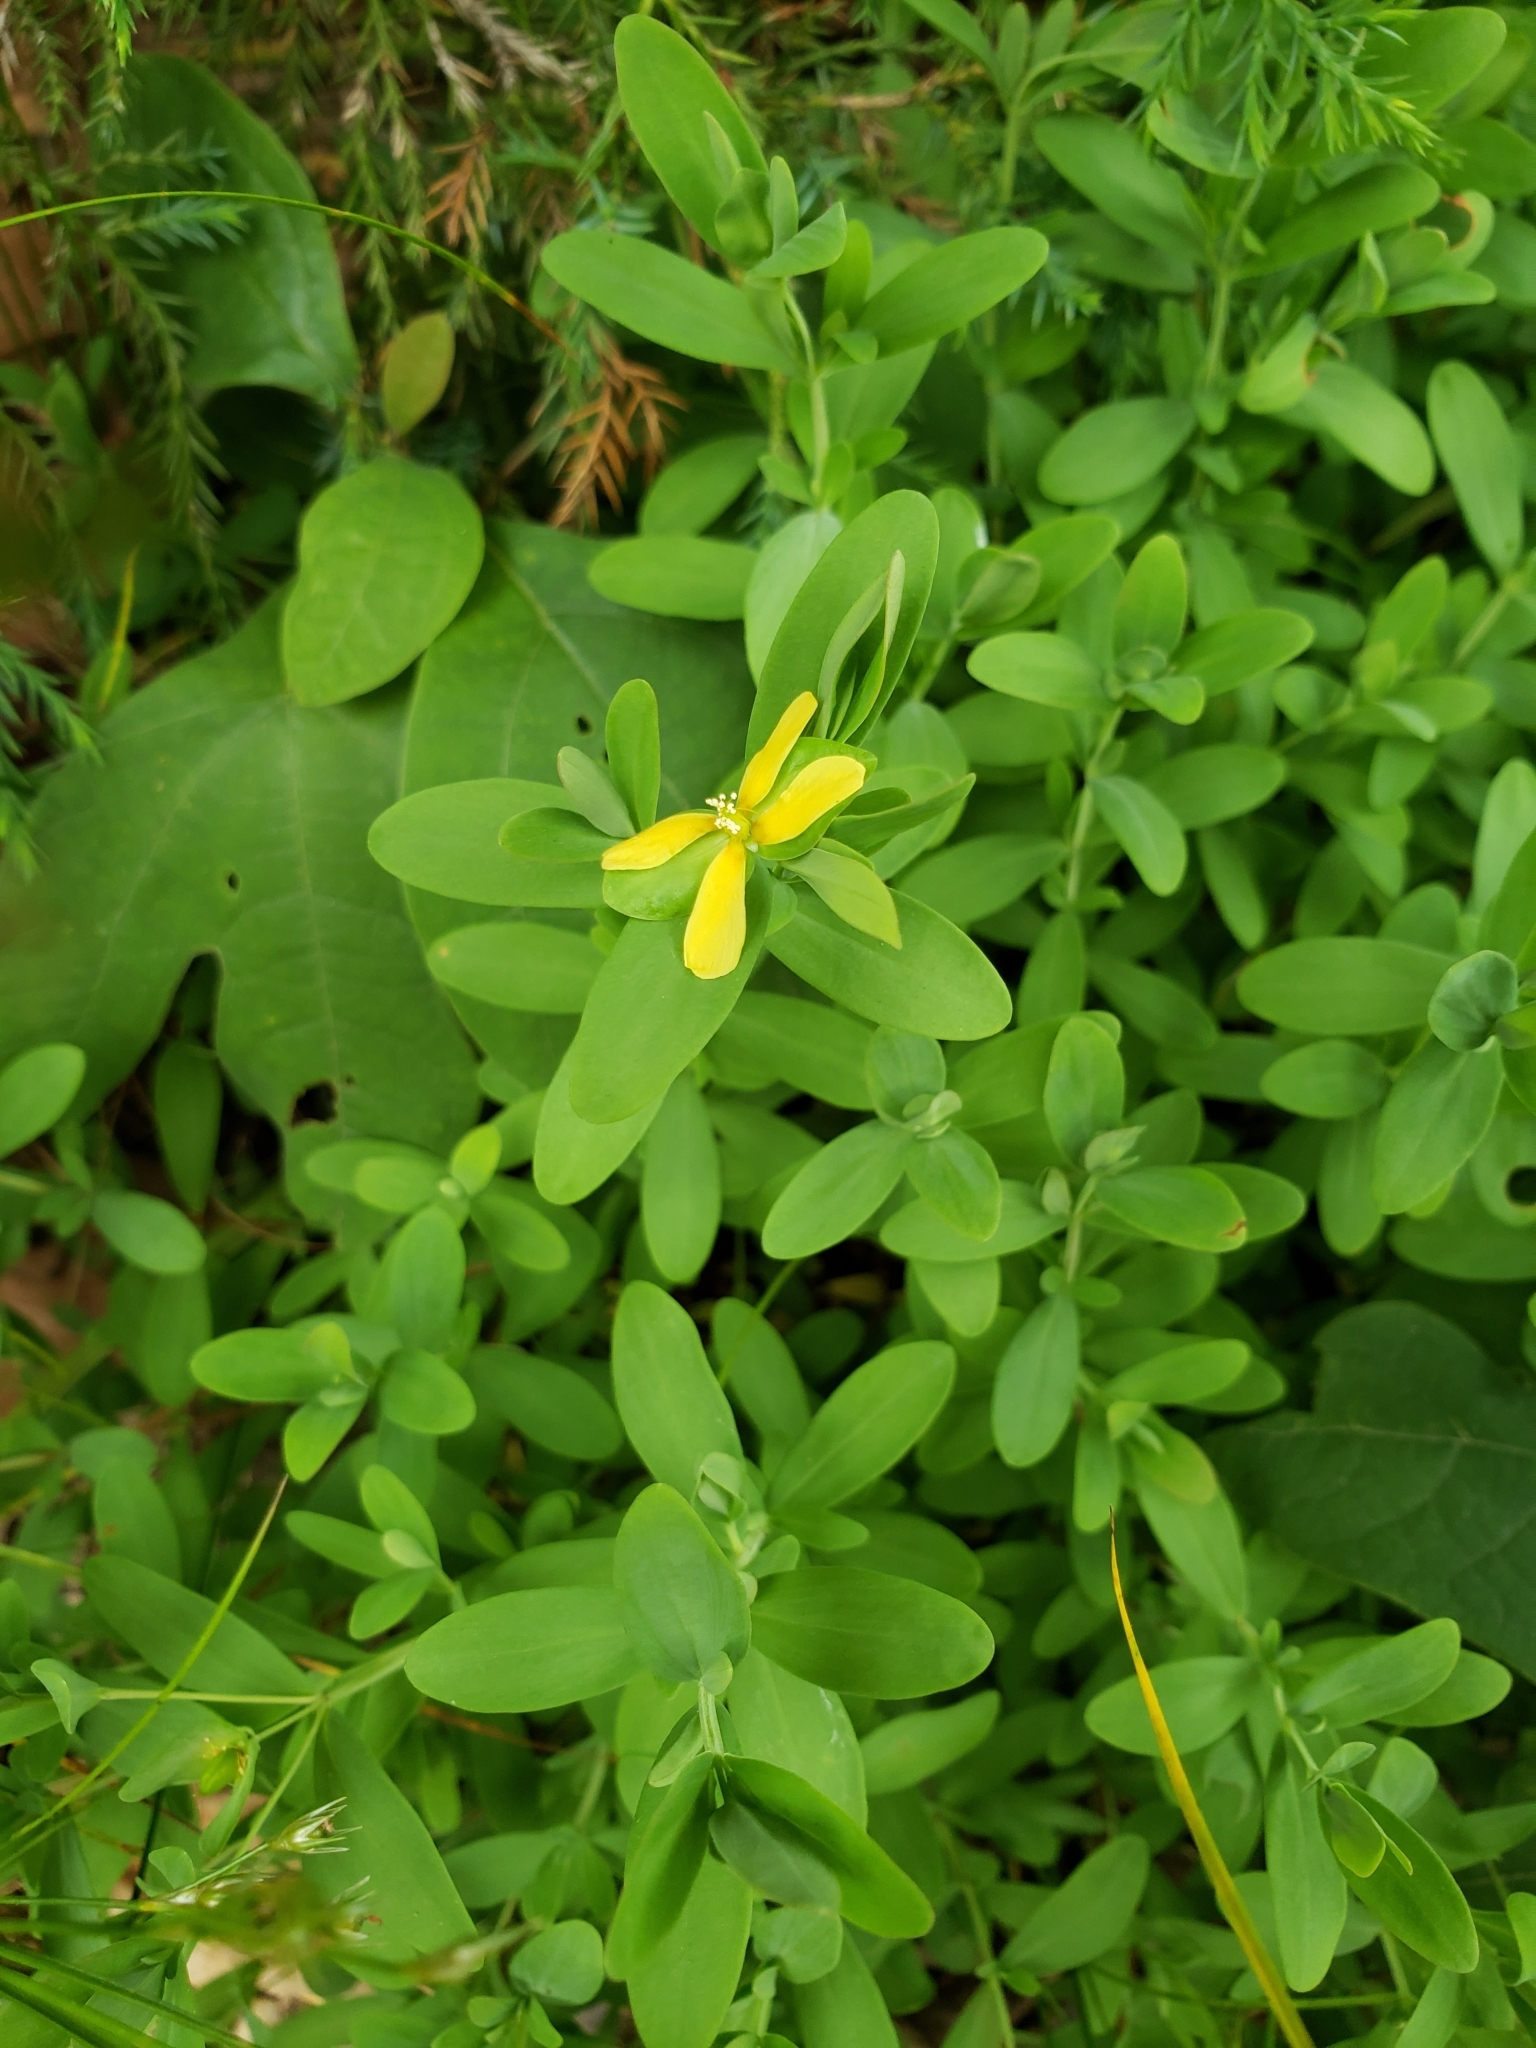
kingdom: Plantae
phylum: Tracheophyta
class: Magnoliopsida
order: Malpighiales
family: Hypericaceae
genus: Hypericum
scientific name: Hypericum hypericoides
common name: St. andrew's cross
